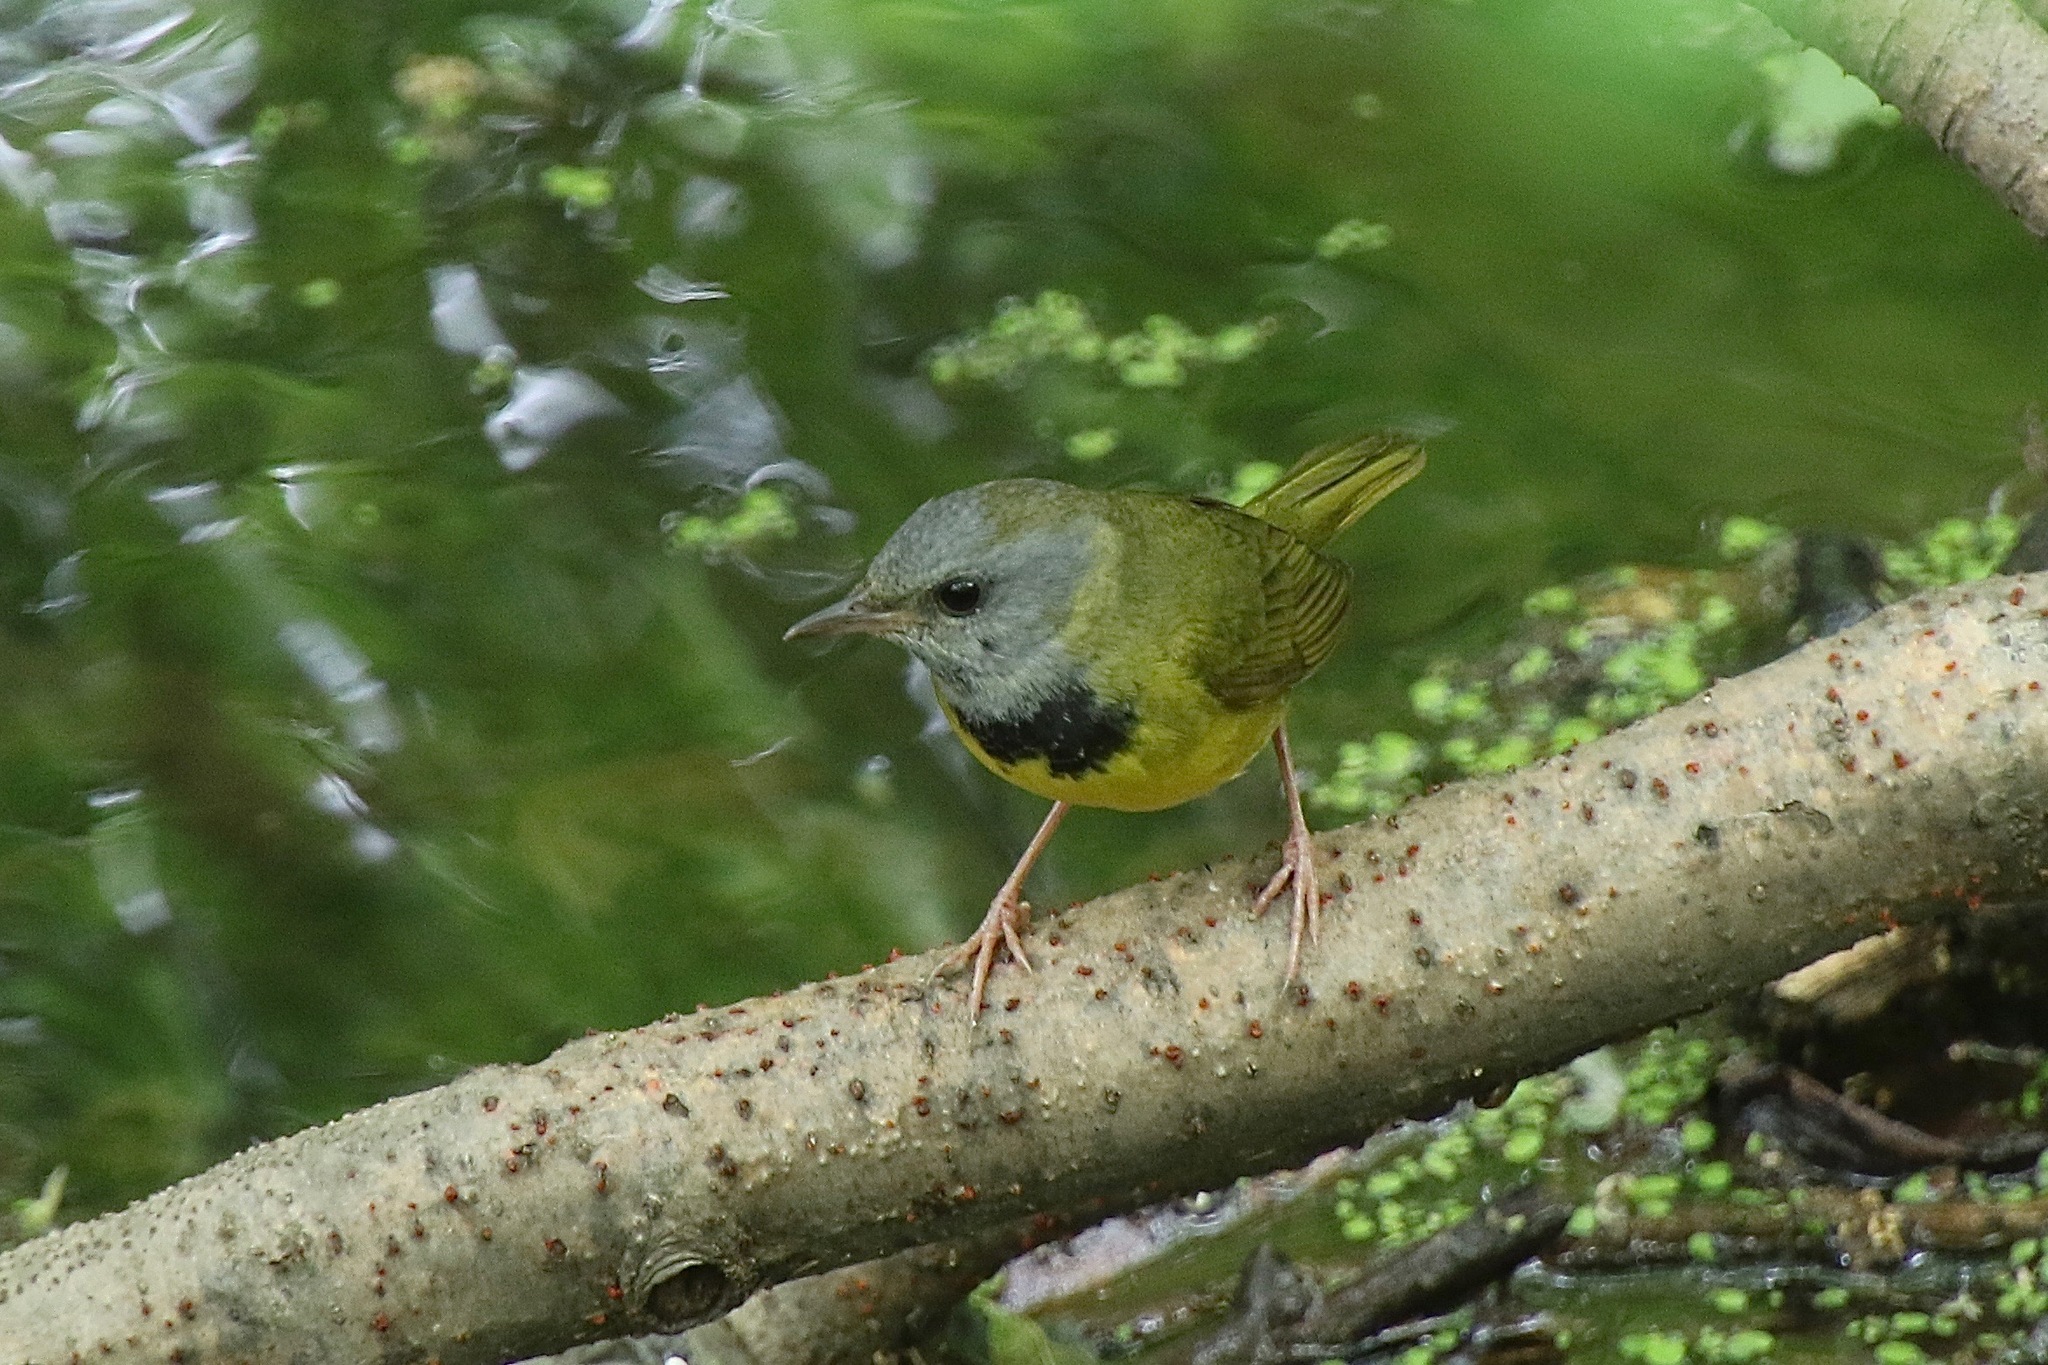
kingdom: Animalia
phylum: Chordata
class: Aves
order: Passeriformes
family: Parulidae
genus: Geothlypis
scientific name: Geothlypis philadelphia
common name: Mourning warbler
